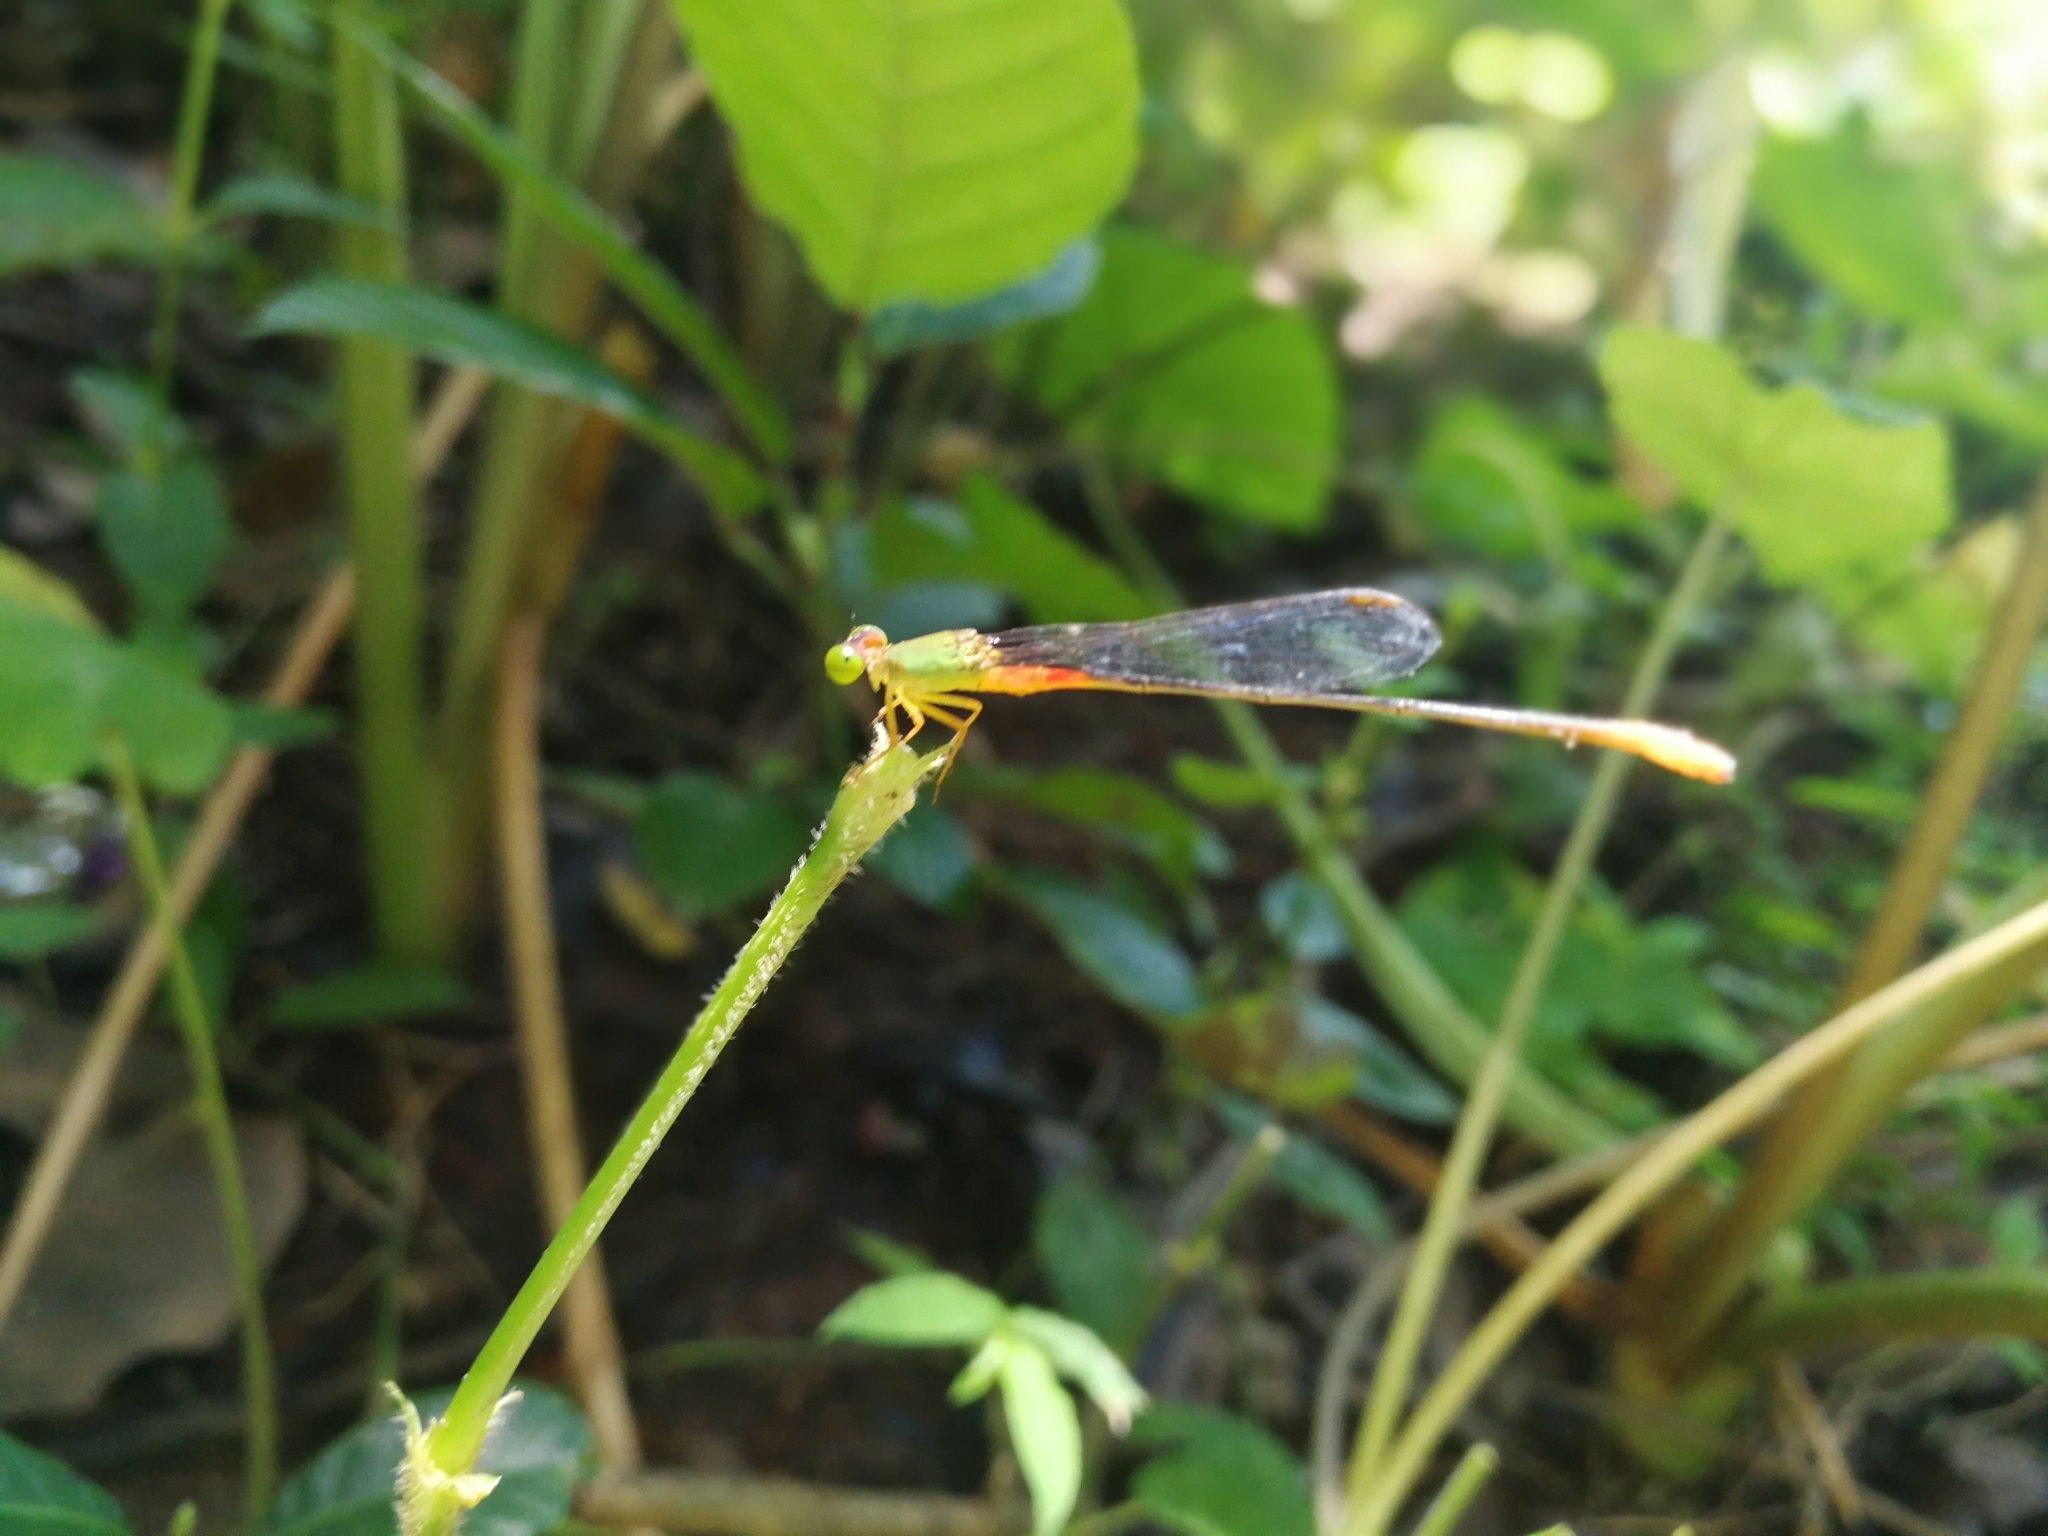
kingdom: Animalia
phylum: Arthropoda
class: Insecta
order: Odonata
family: Coenagrionidae
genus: Ceriagrion
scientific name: Ceriagrion cerinorubellum
